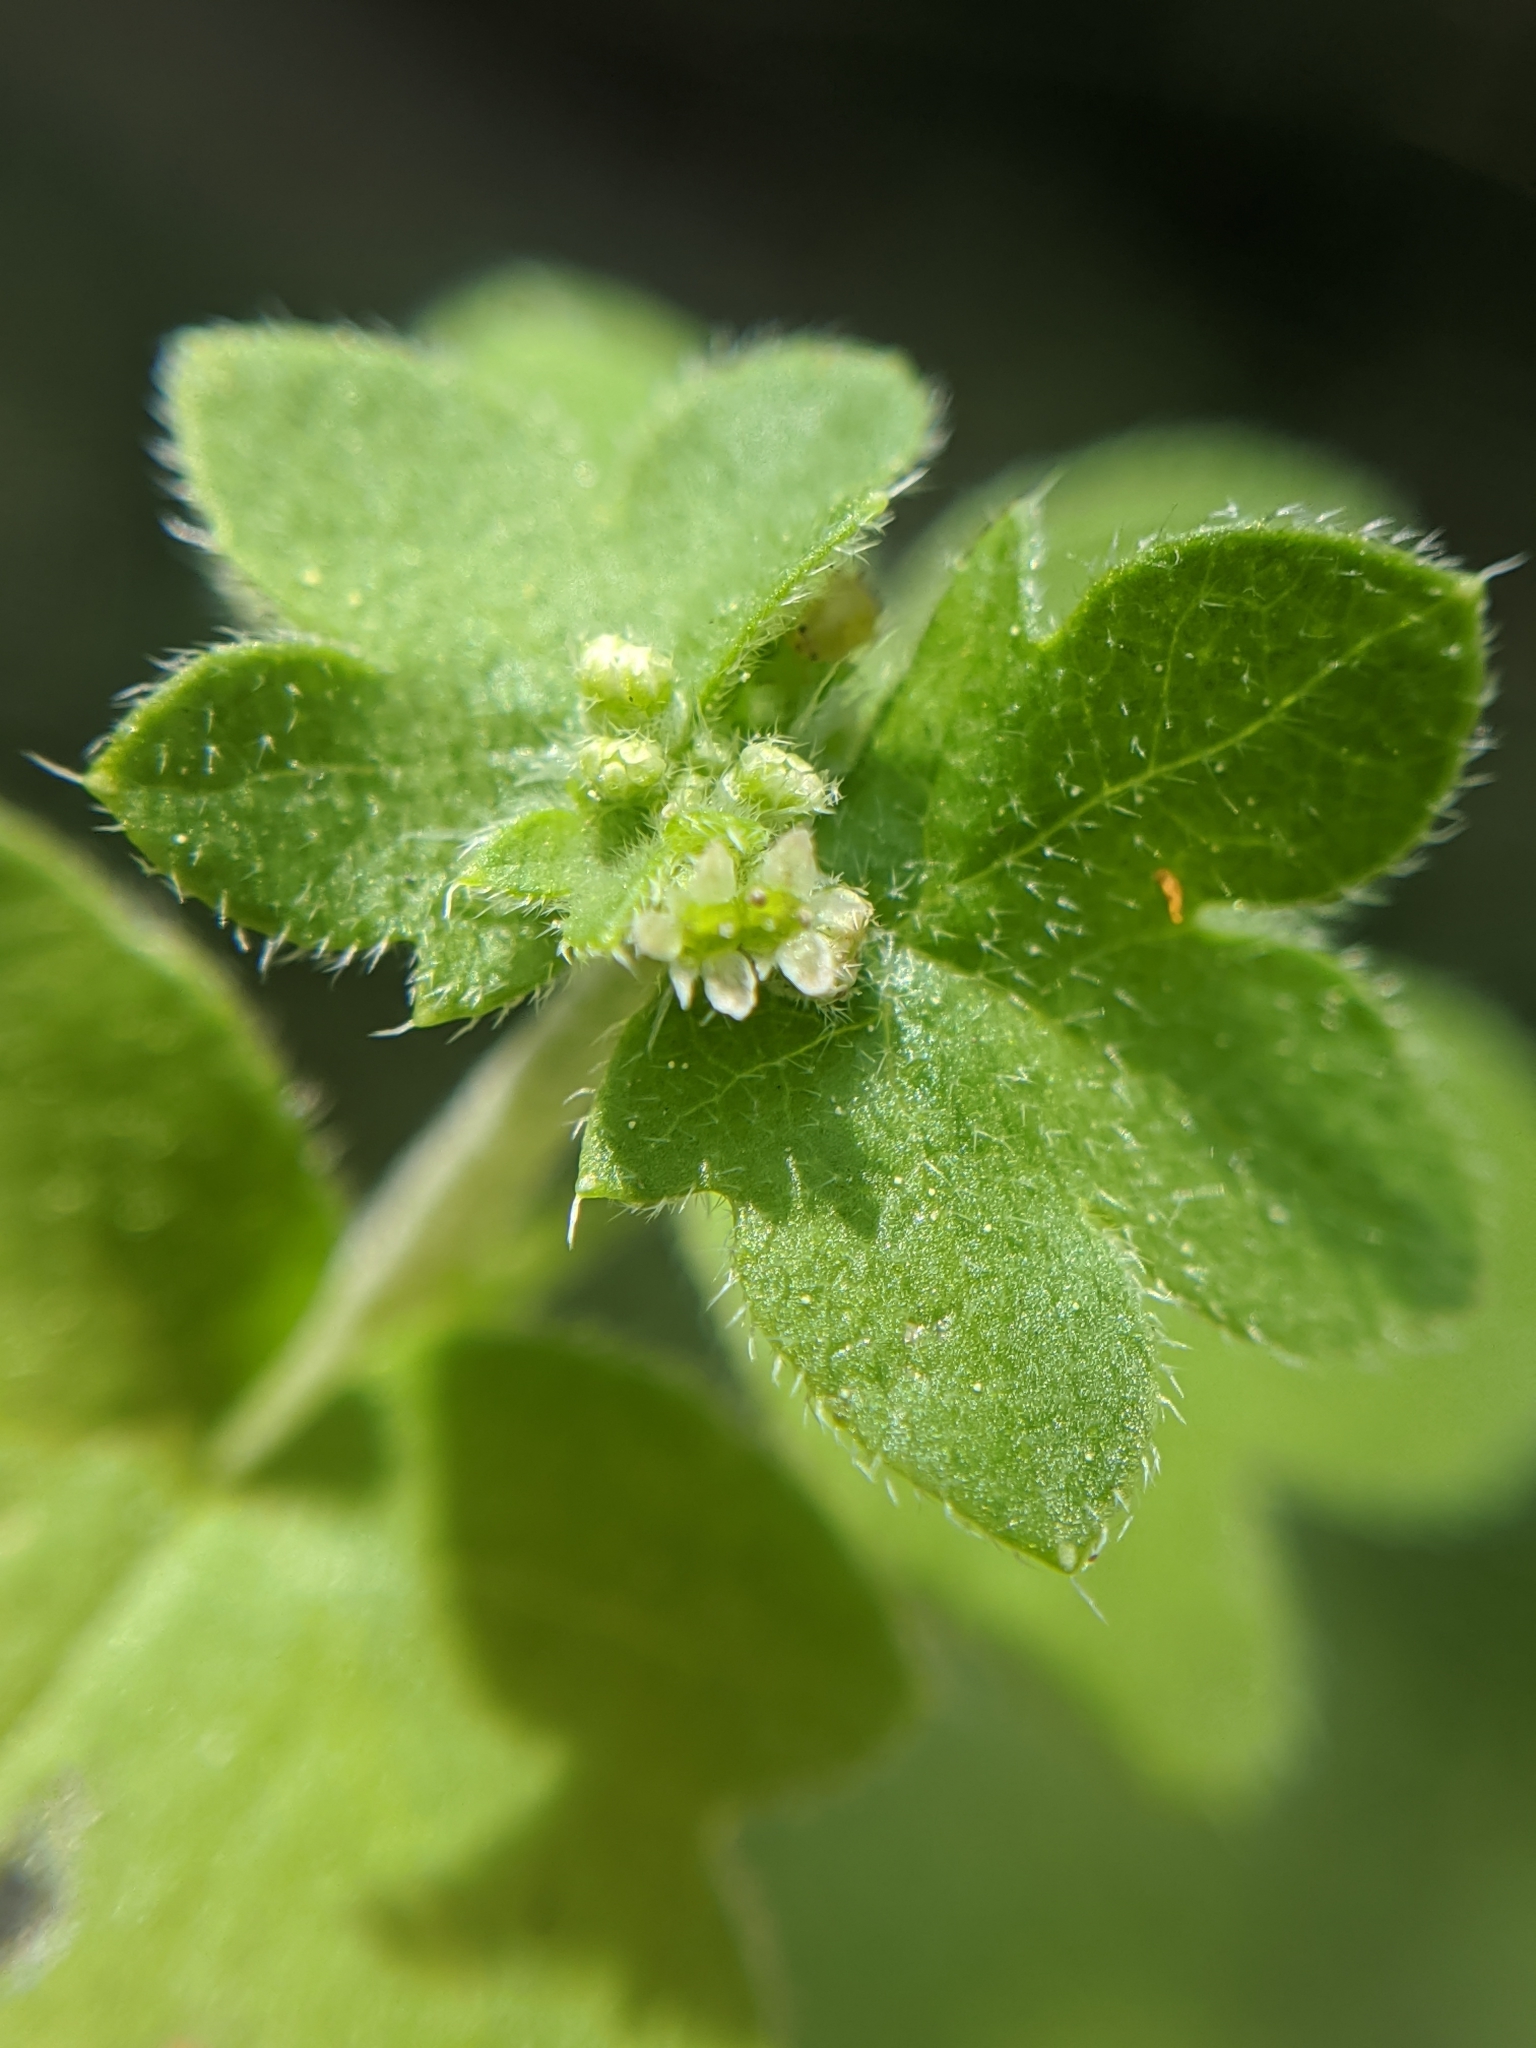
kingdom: Plantae
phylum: Tracheophyta
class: Magnoliopsida
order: Apiales
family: Apiaceae
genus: Bowlesia
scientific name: Bowlesia incana
